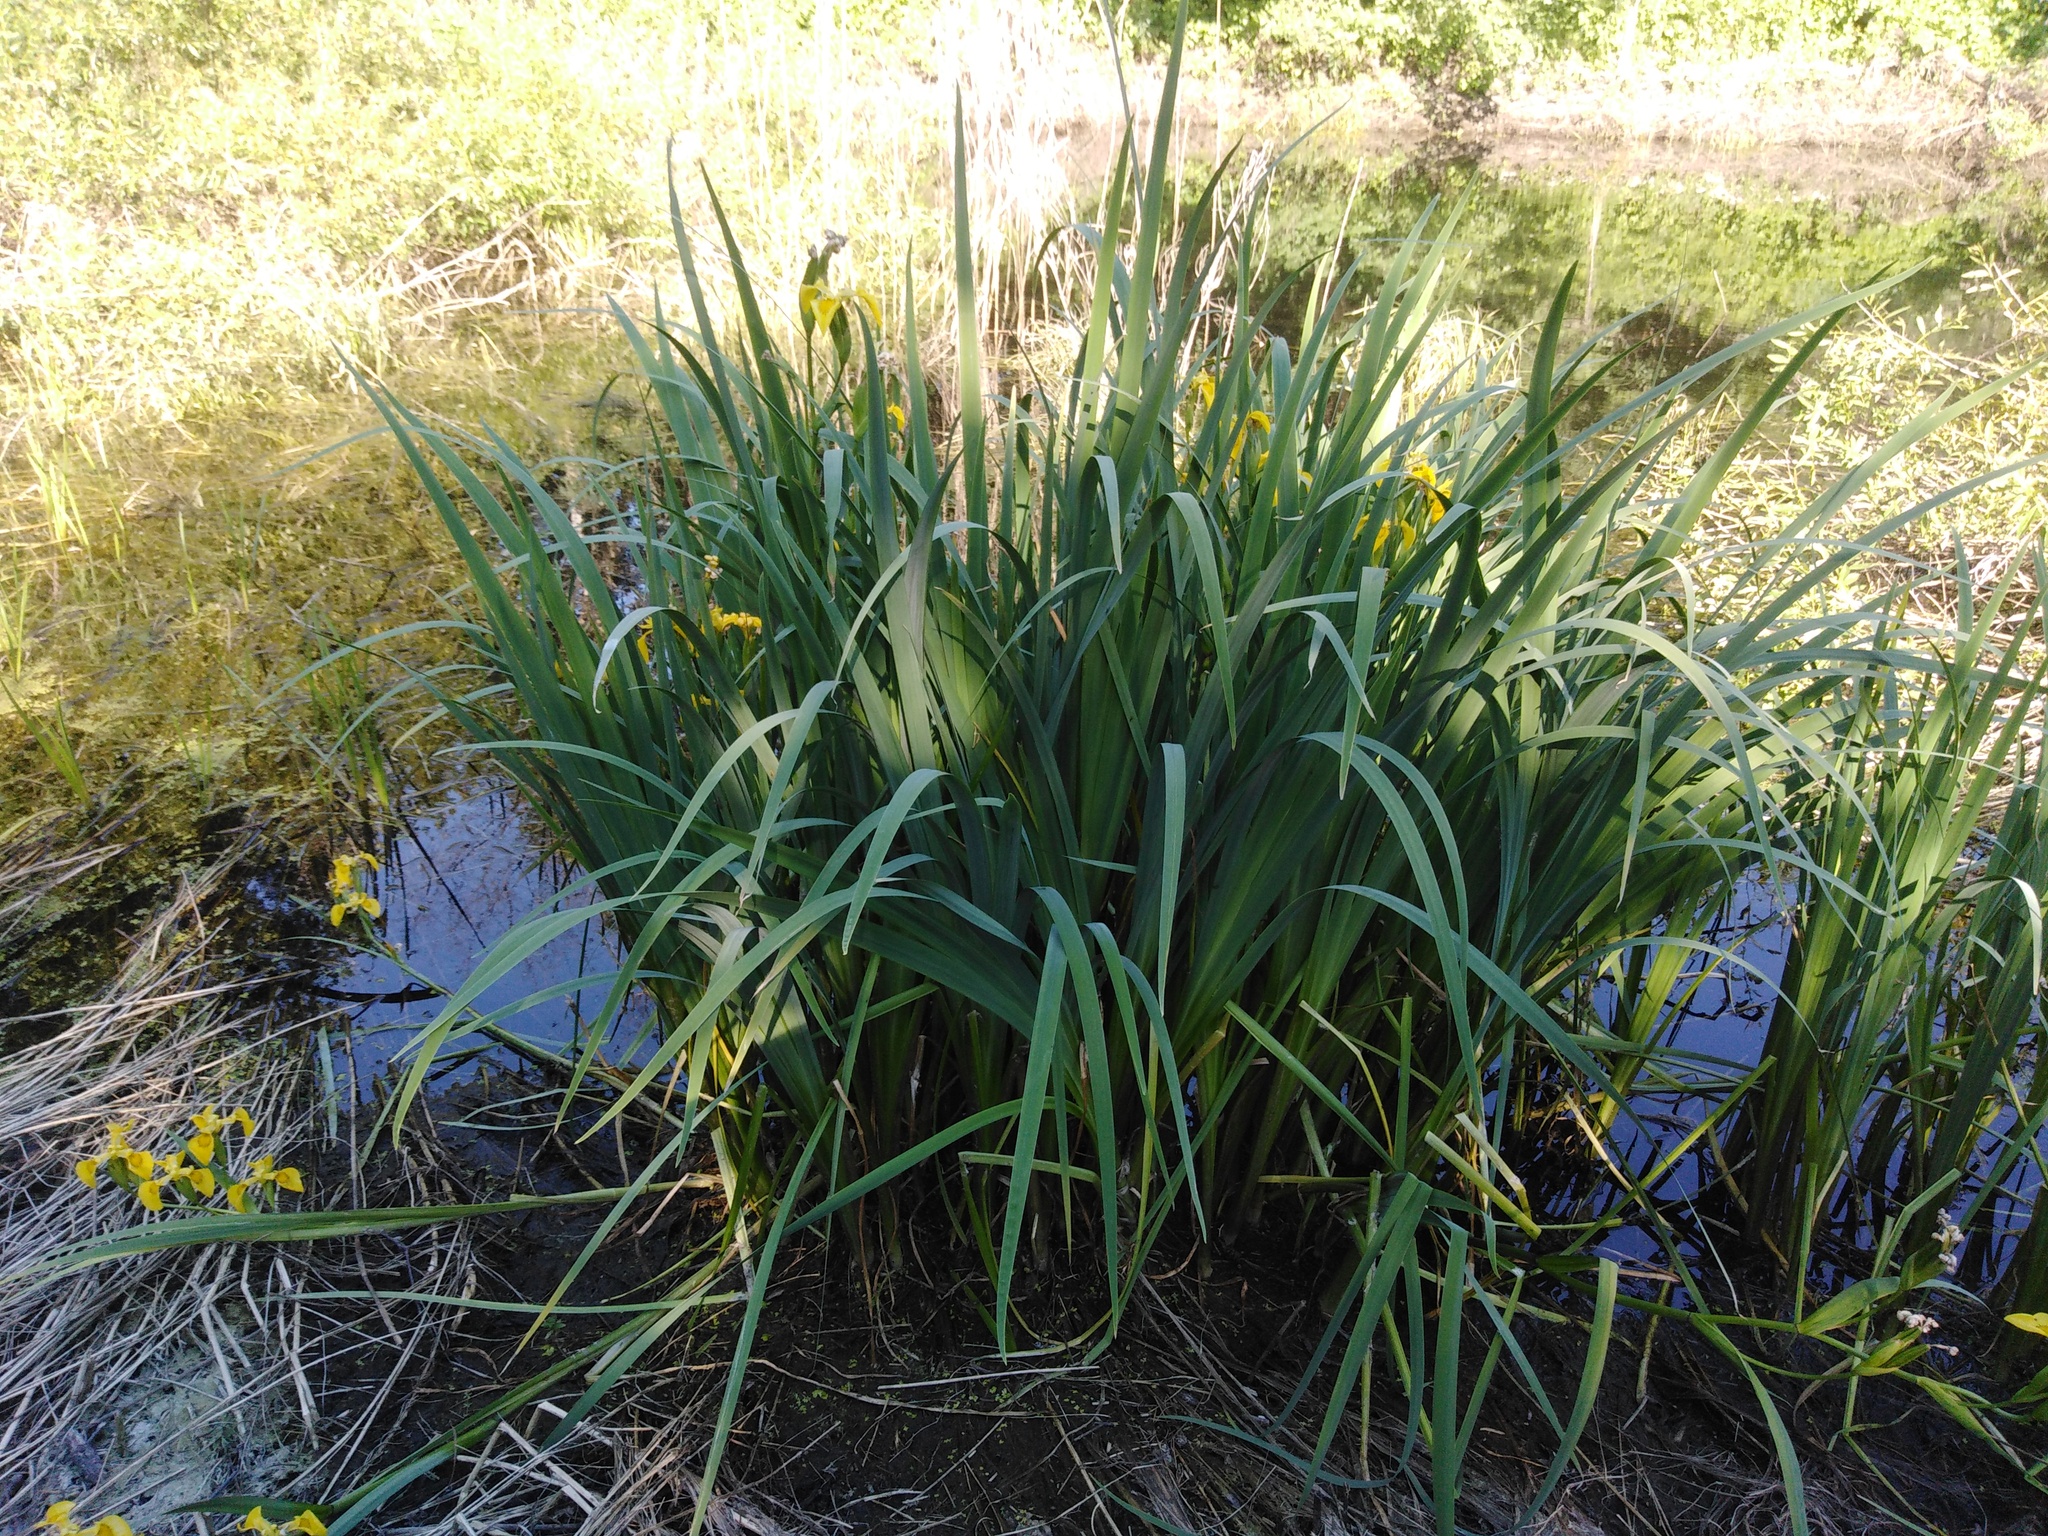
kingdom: Plantae
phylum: Tracheophyta
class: Liliopsida
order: Asparagales
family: Iridaceae
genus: Iris
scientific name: Iris pseudacorus
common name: Yellow flag
